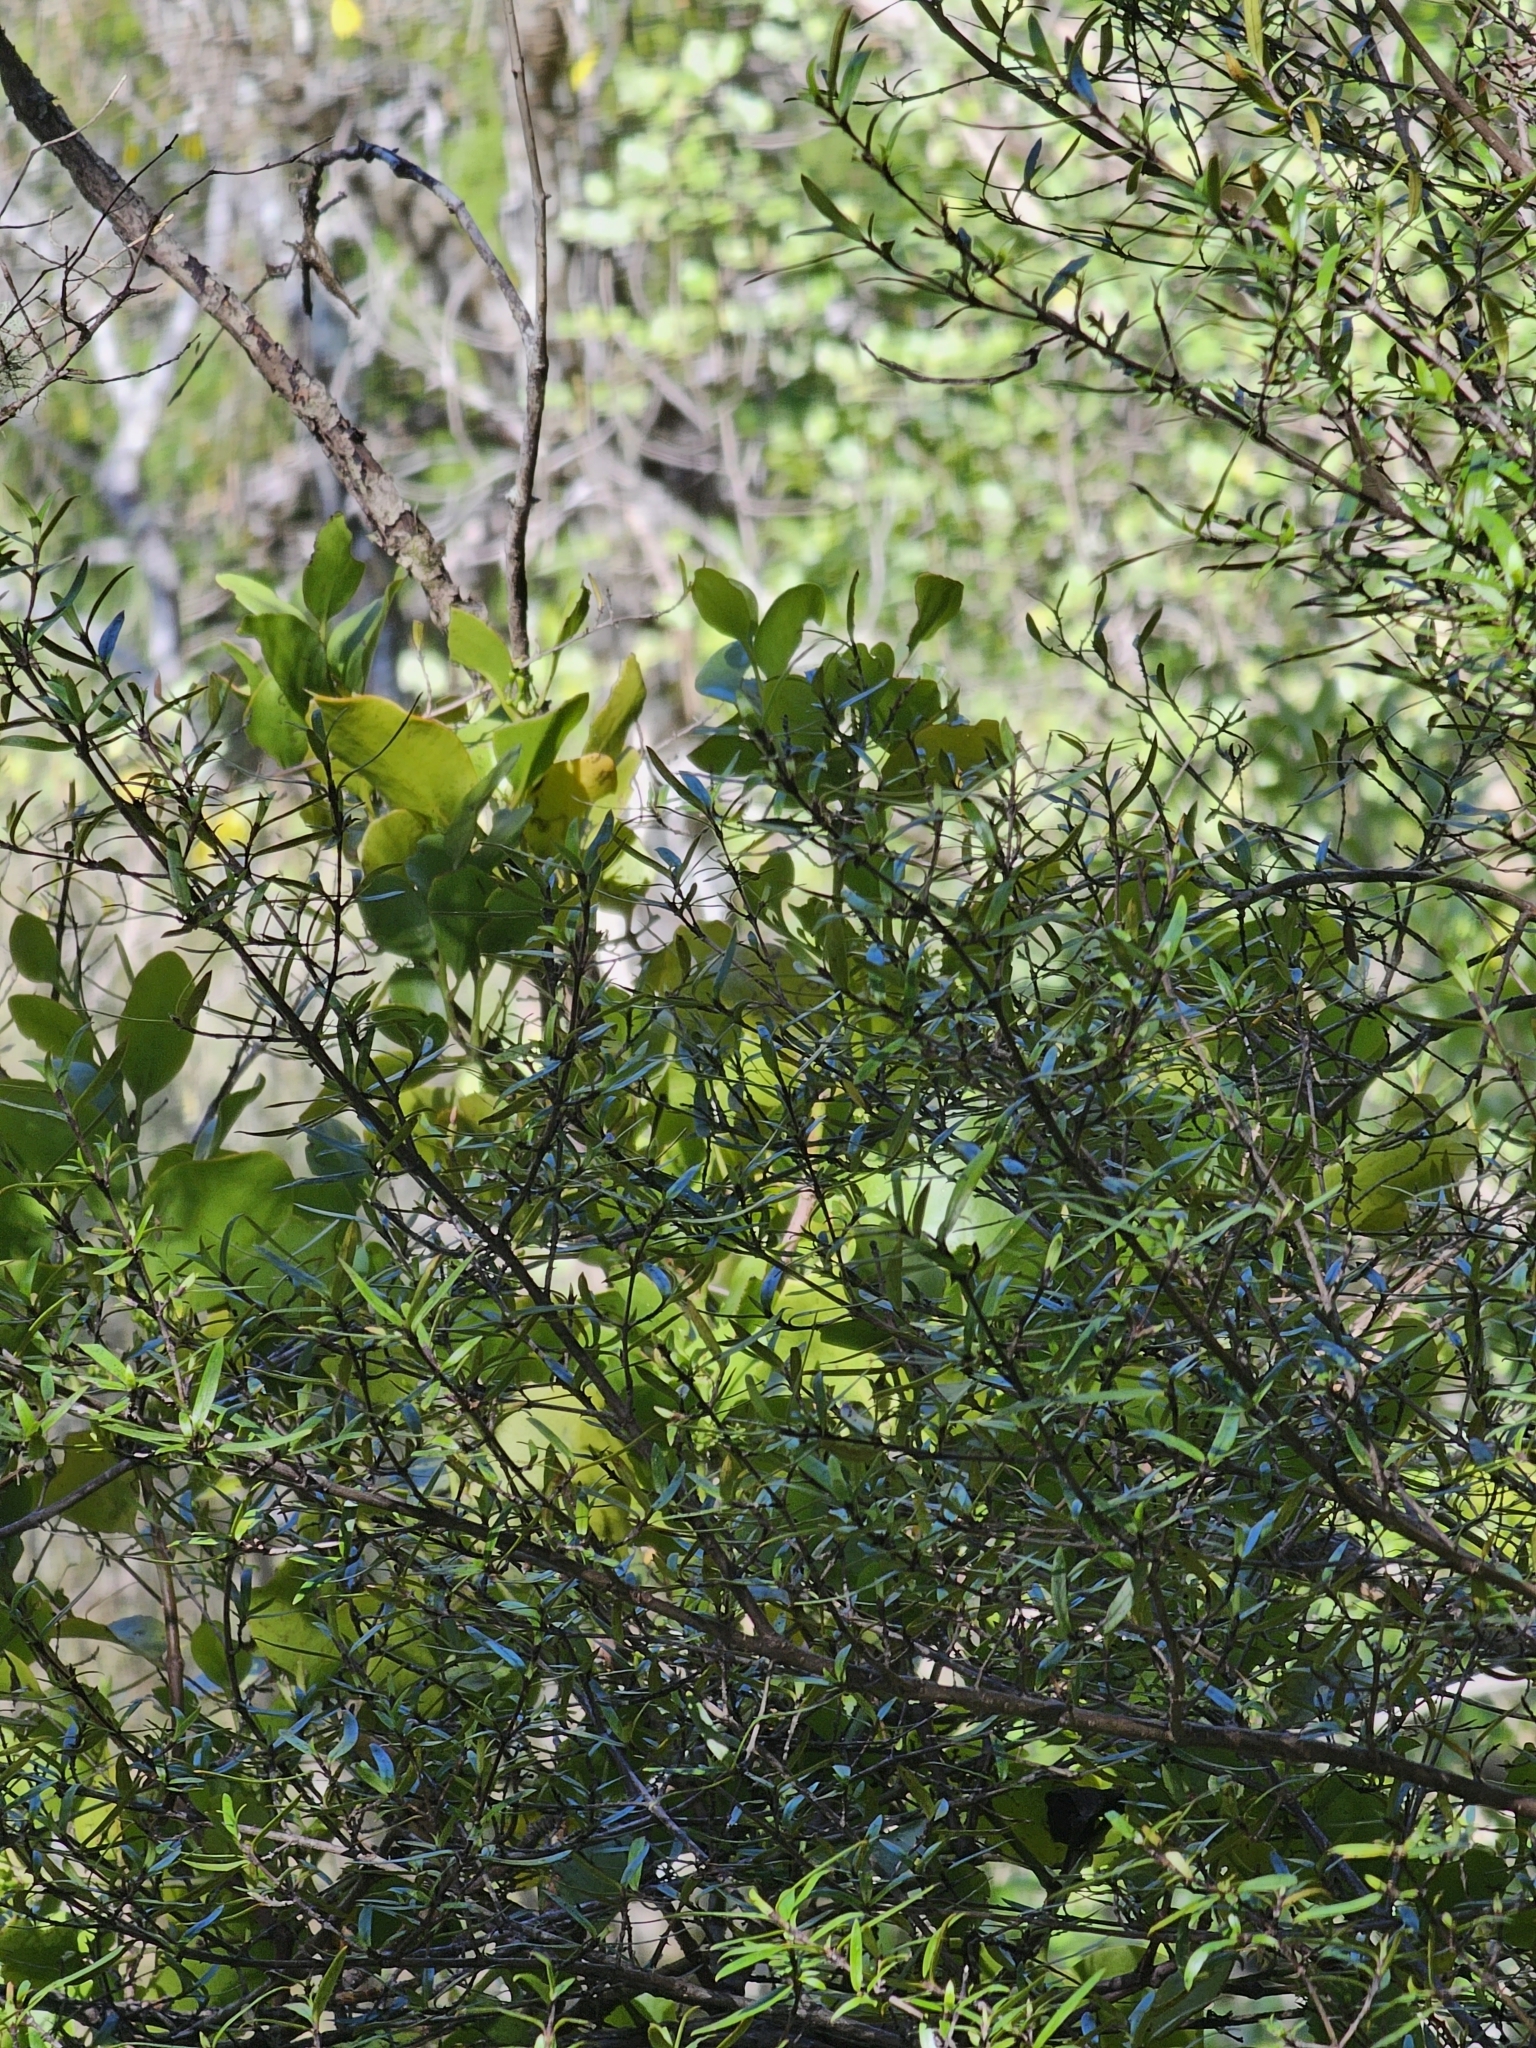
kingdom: Plantae
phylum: Tracheophyta
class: Magnoliopsida
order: Santalales
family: Loranthaceae
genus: Ileostylus
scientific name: Ileostylus micranthus
